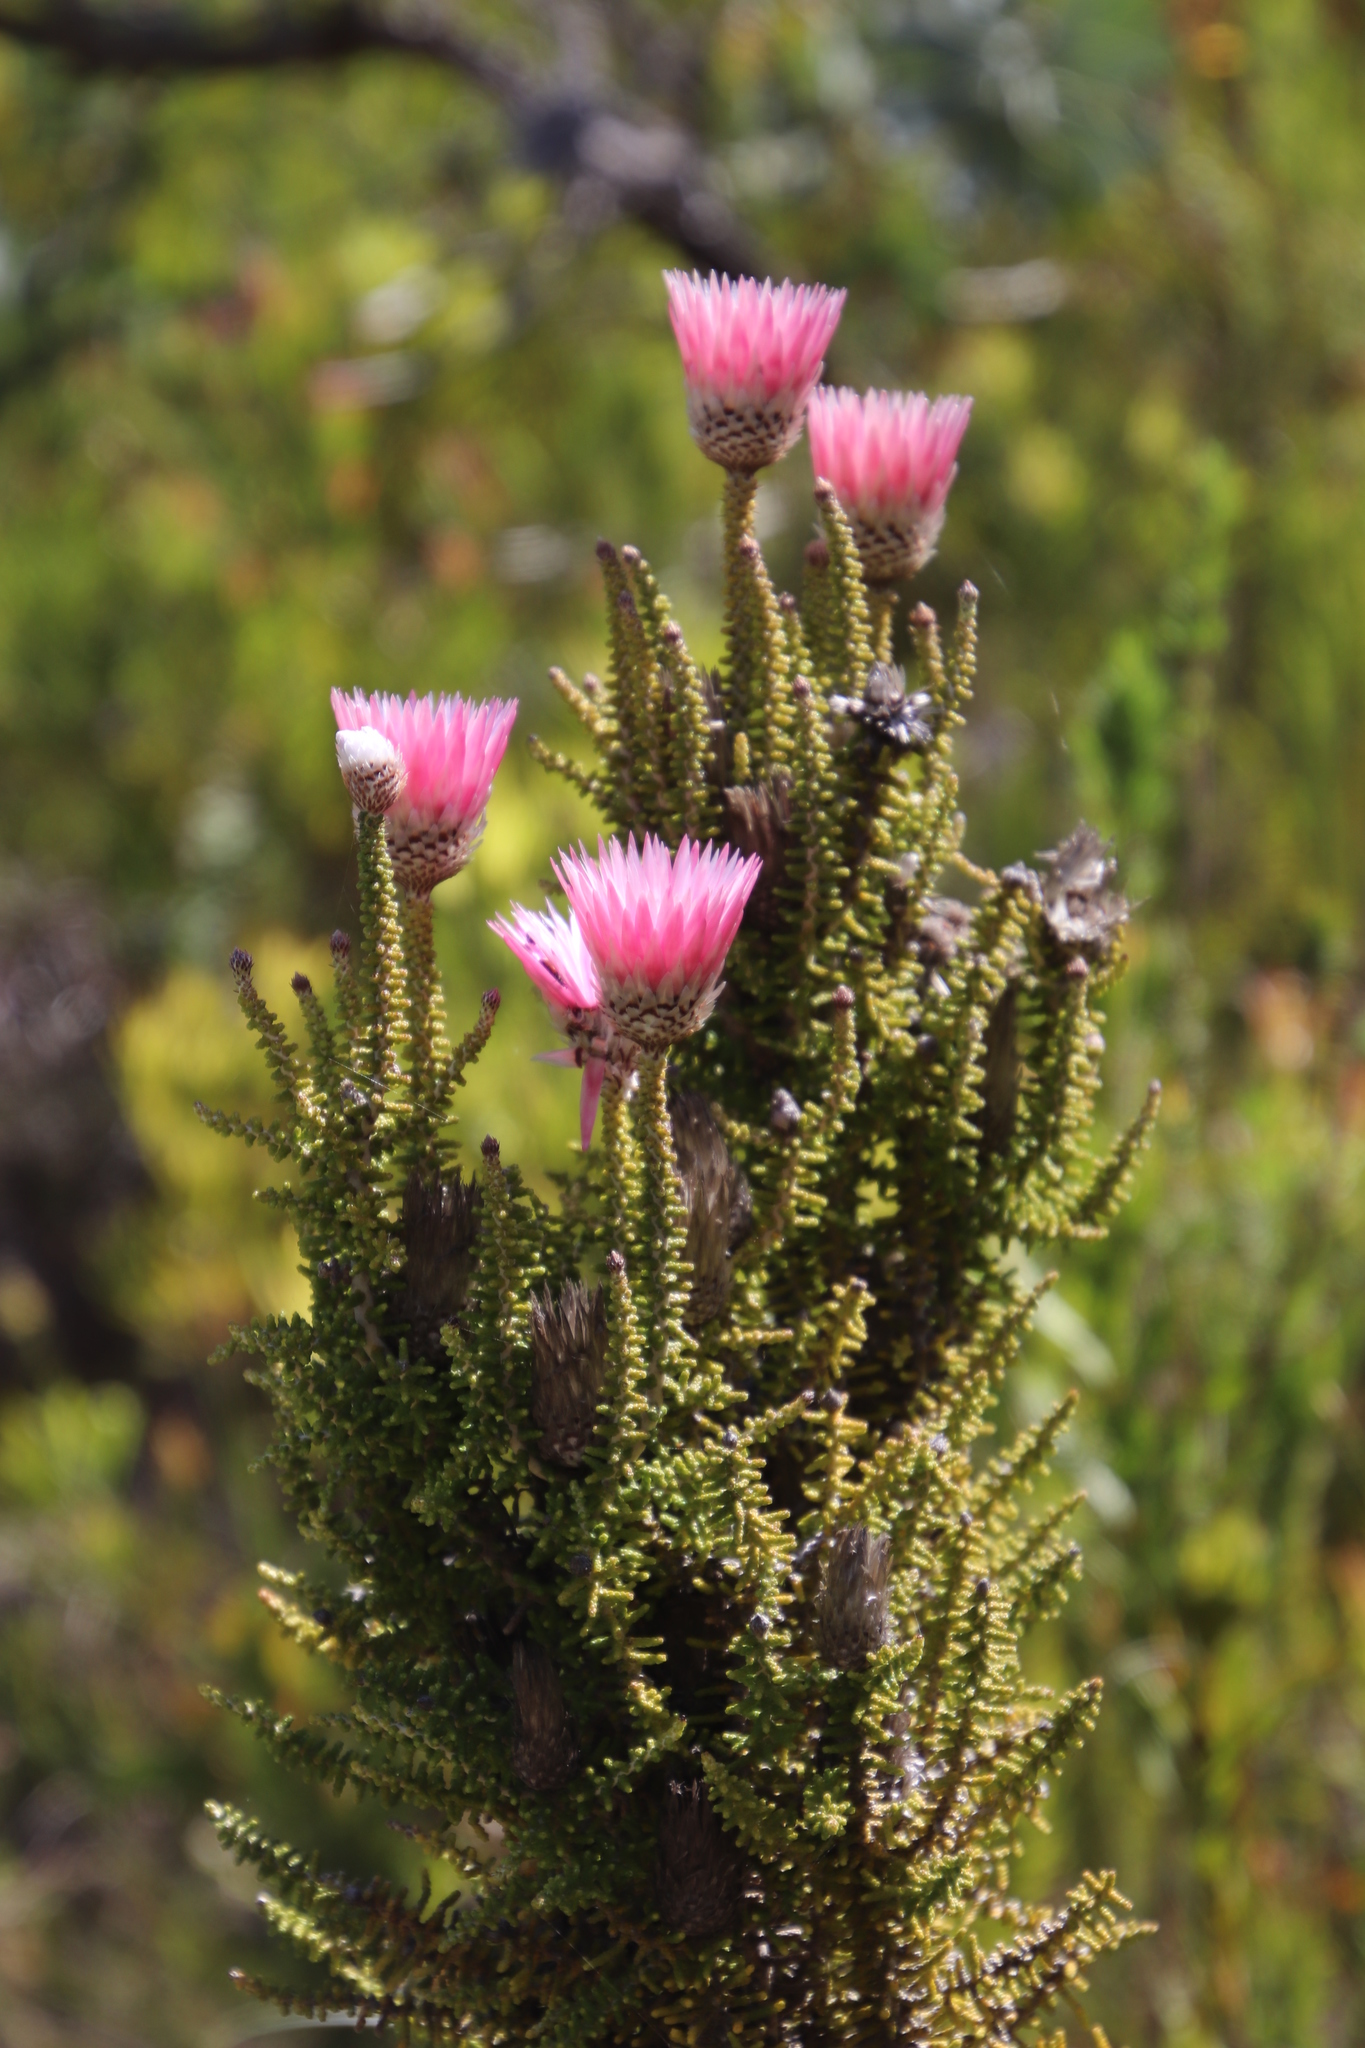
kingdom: Plantae
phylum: Tracheophyta
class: Magnoliopsida
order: Asterales
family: Asteraceae
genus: Phaenocoma
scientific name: Phaenocoma prolifera
